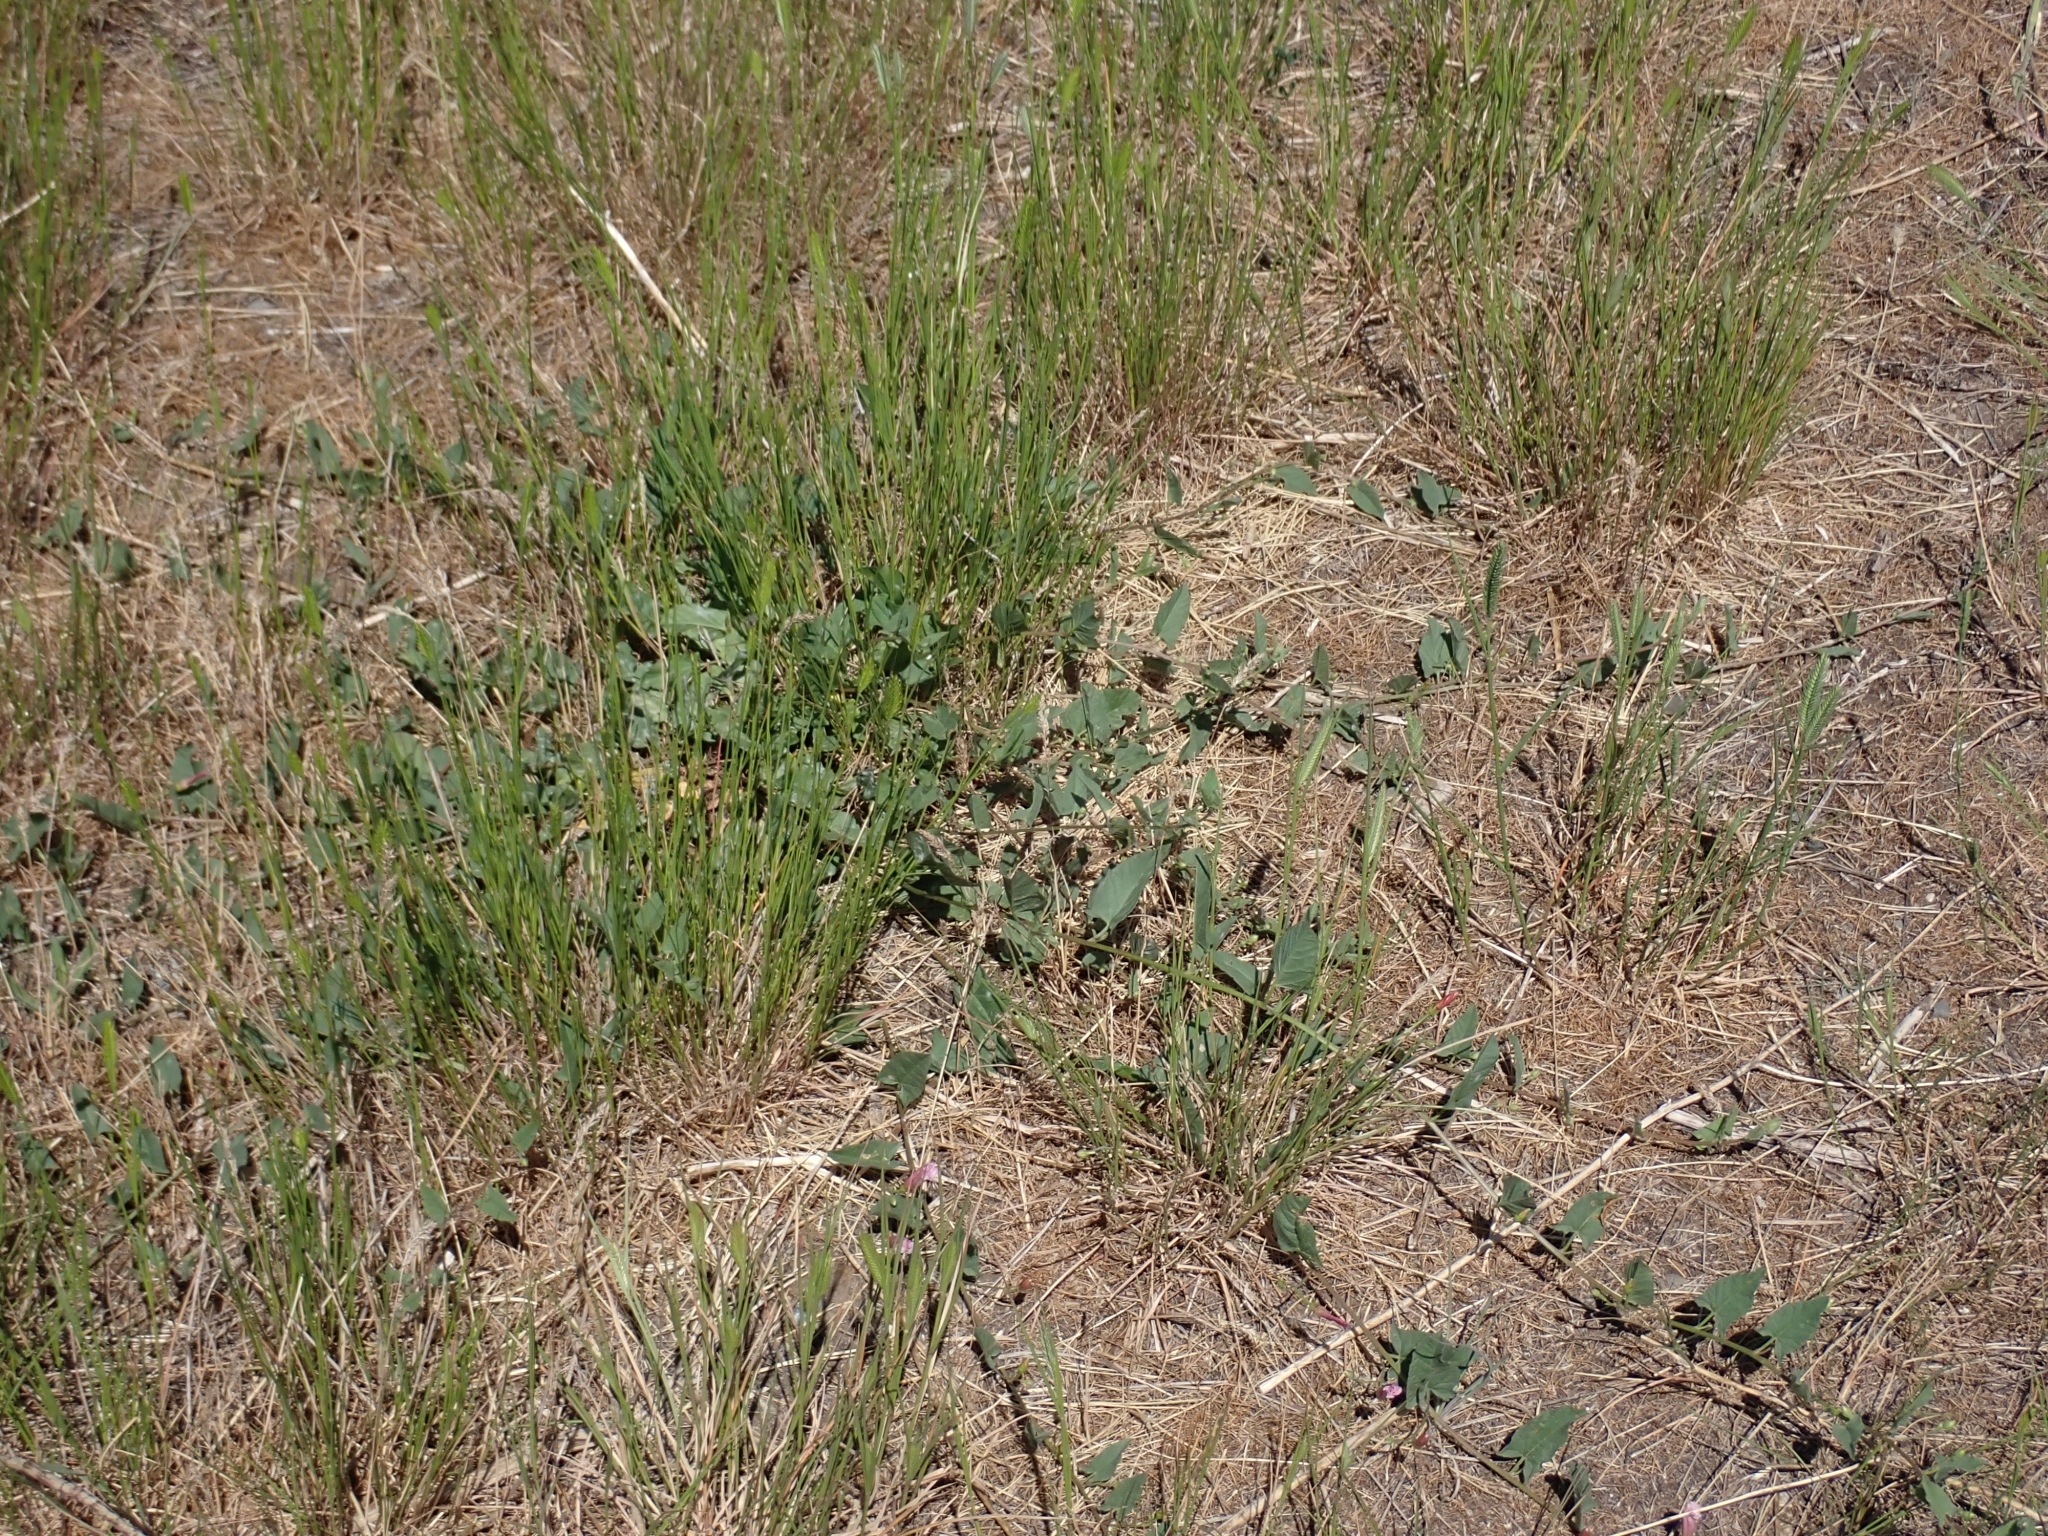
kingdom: Plantae
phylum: Tracheophyta
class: Magnoliopsida
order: Solanales
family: Convolvulaceae
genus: Convolvulus
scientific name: Convolvulus arvensis
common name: Field bindweed
